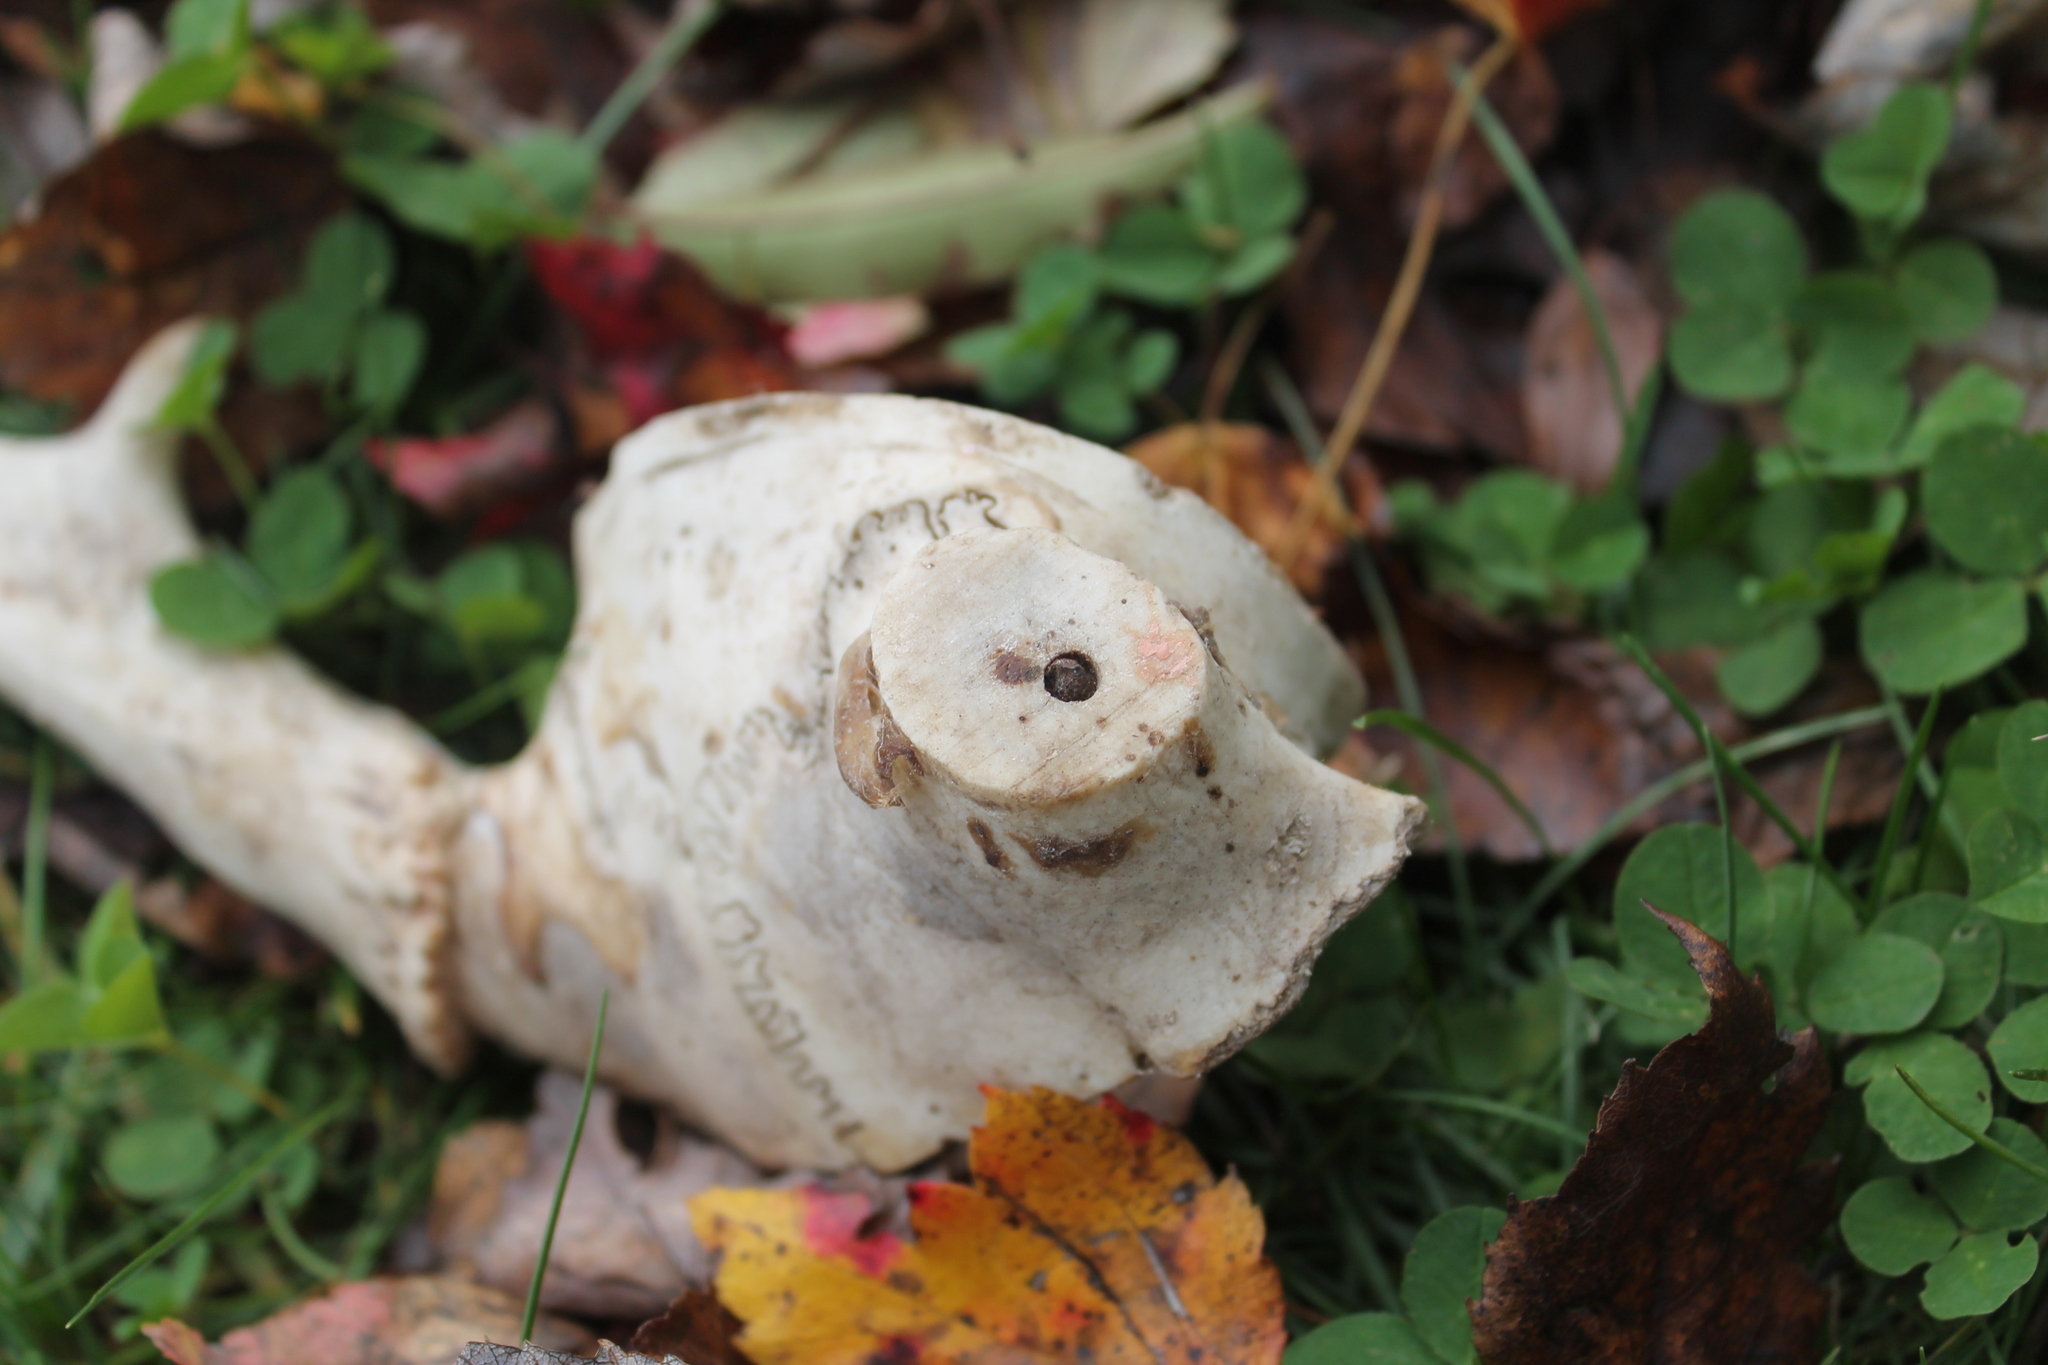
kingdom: Animalia
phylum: Chordata
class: Mammalia
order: Artiodactyla
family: Cervidae
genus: Odocoileus
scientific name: Odocoileus virginianus
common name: White-tailed deer
